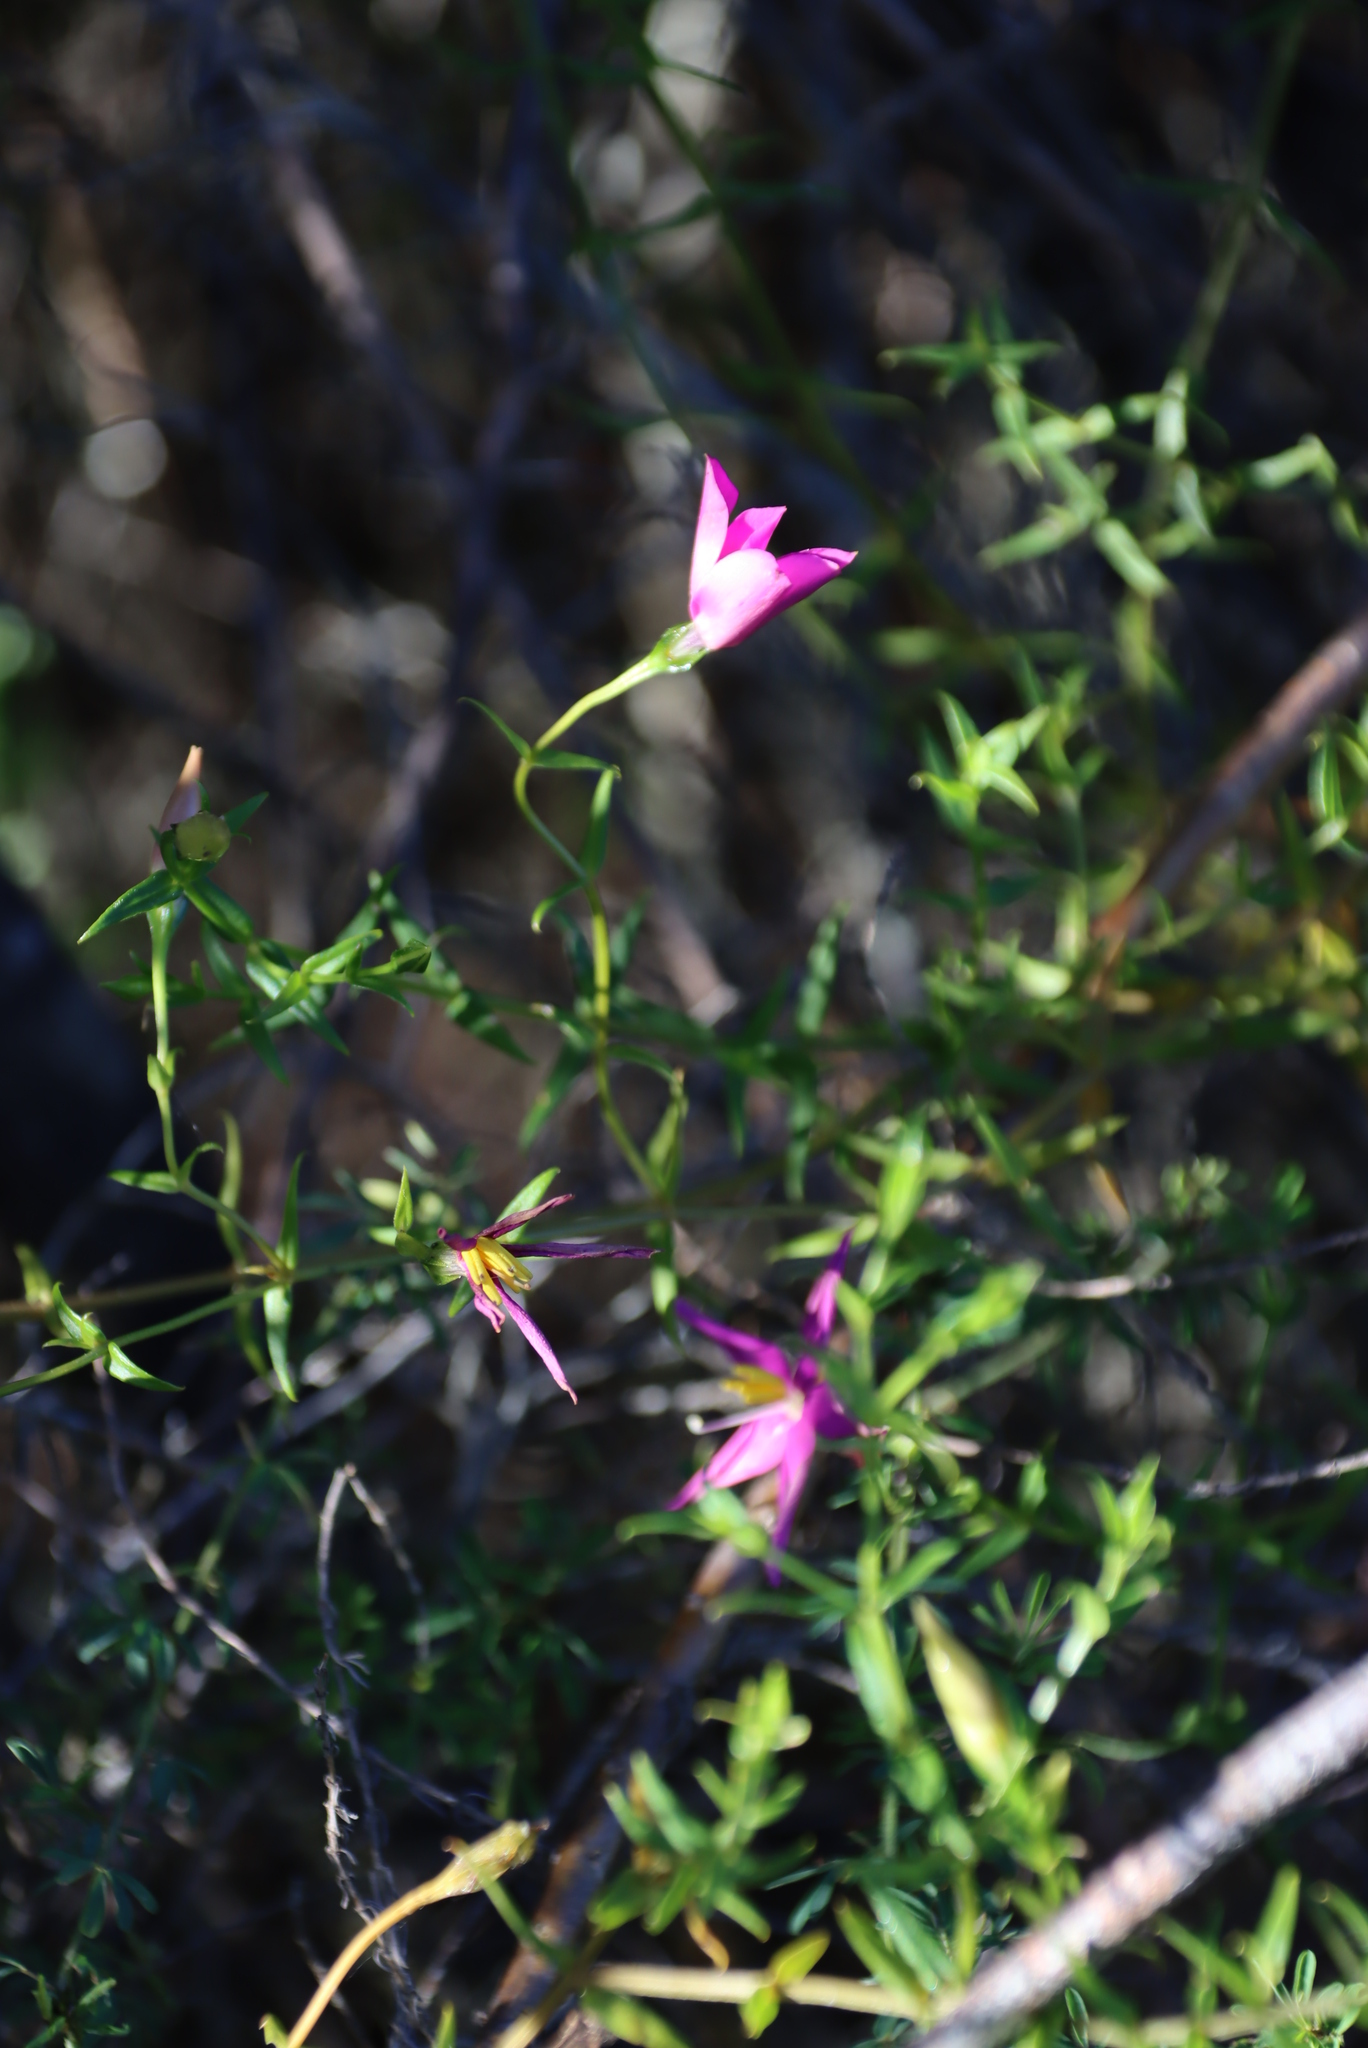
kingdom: Plantae
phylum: Tracheophyta
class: Magnoliopsida
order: Gentianales
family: Gentianaceae
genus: Chironia
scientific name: Chironia tetragona
